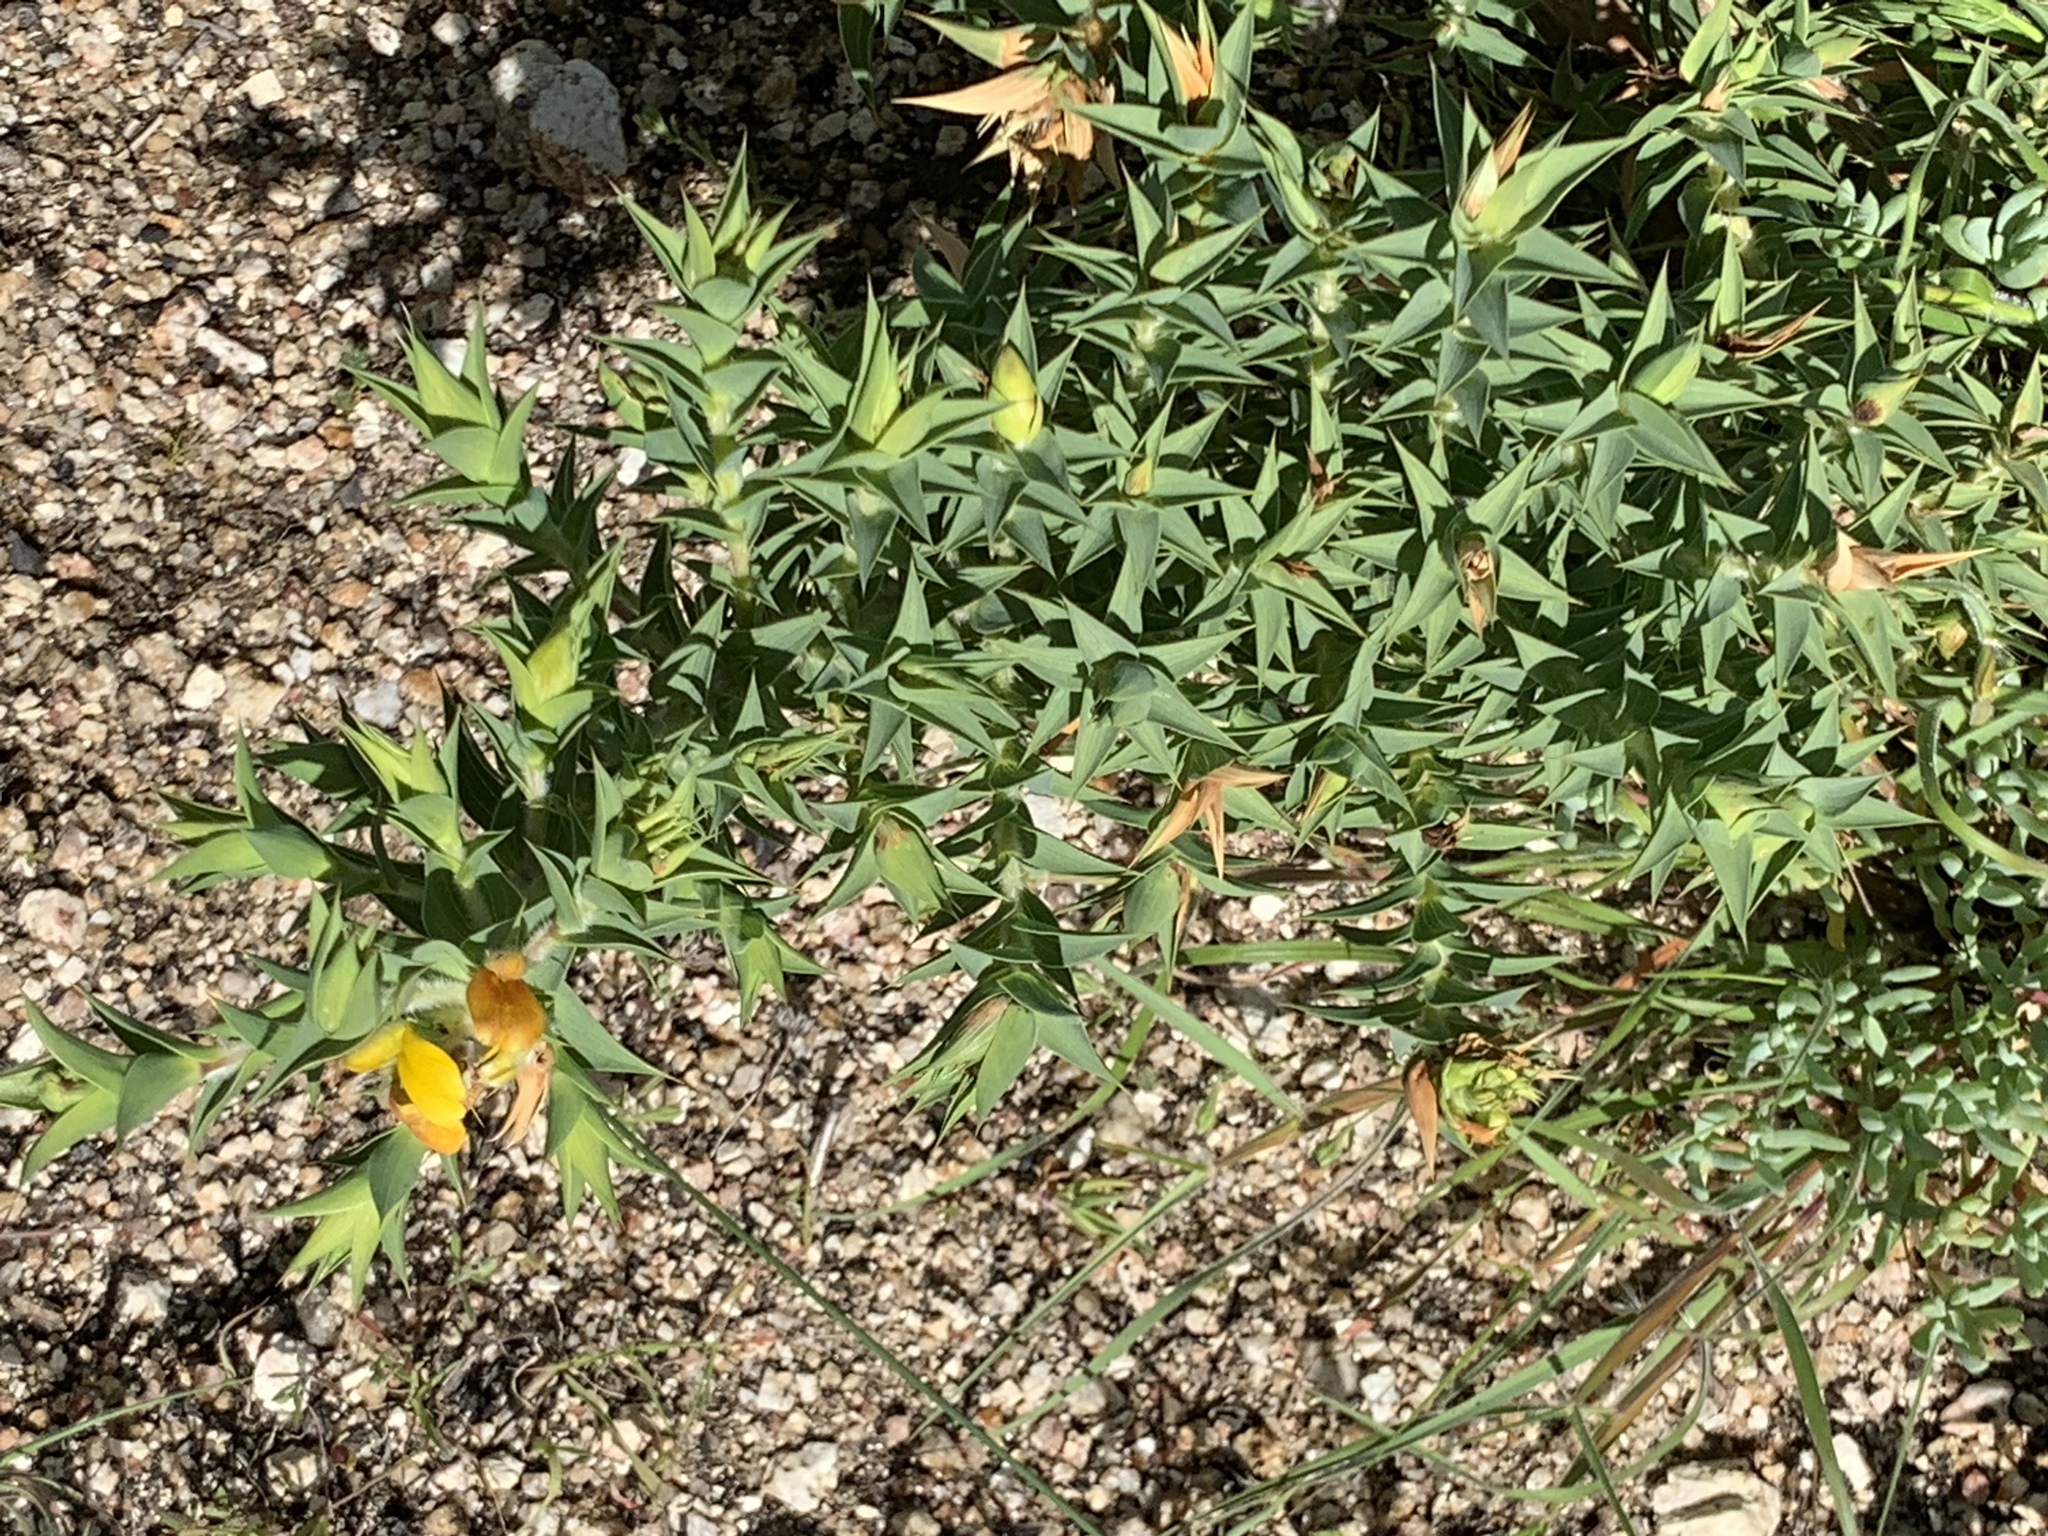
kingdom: Plantae
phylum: Tracheophyta
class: Magnoliopsida
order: Fabales
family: Fabaceae
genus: Aspalathus
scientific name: Aspalathus cordata
